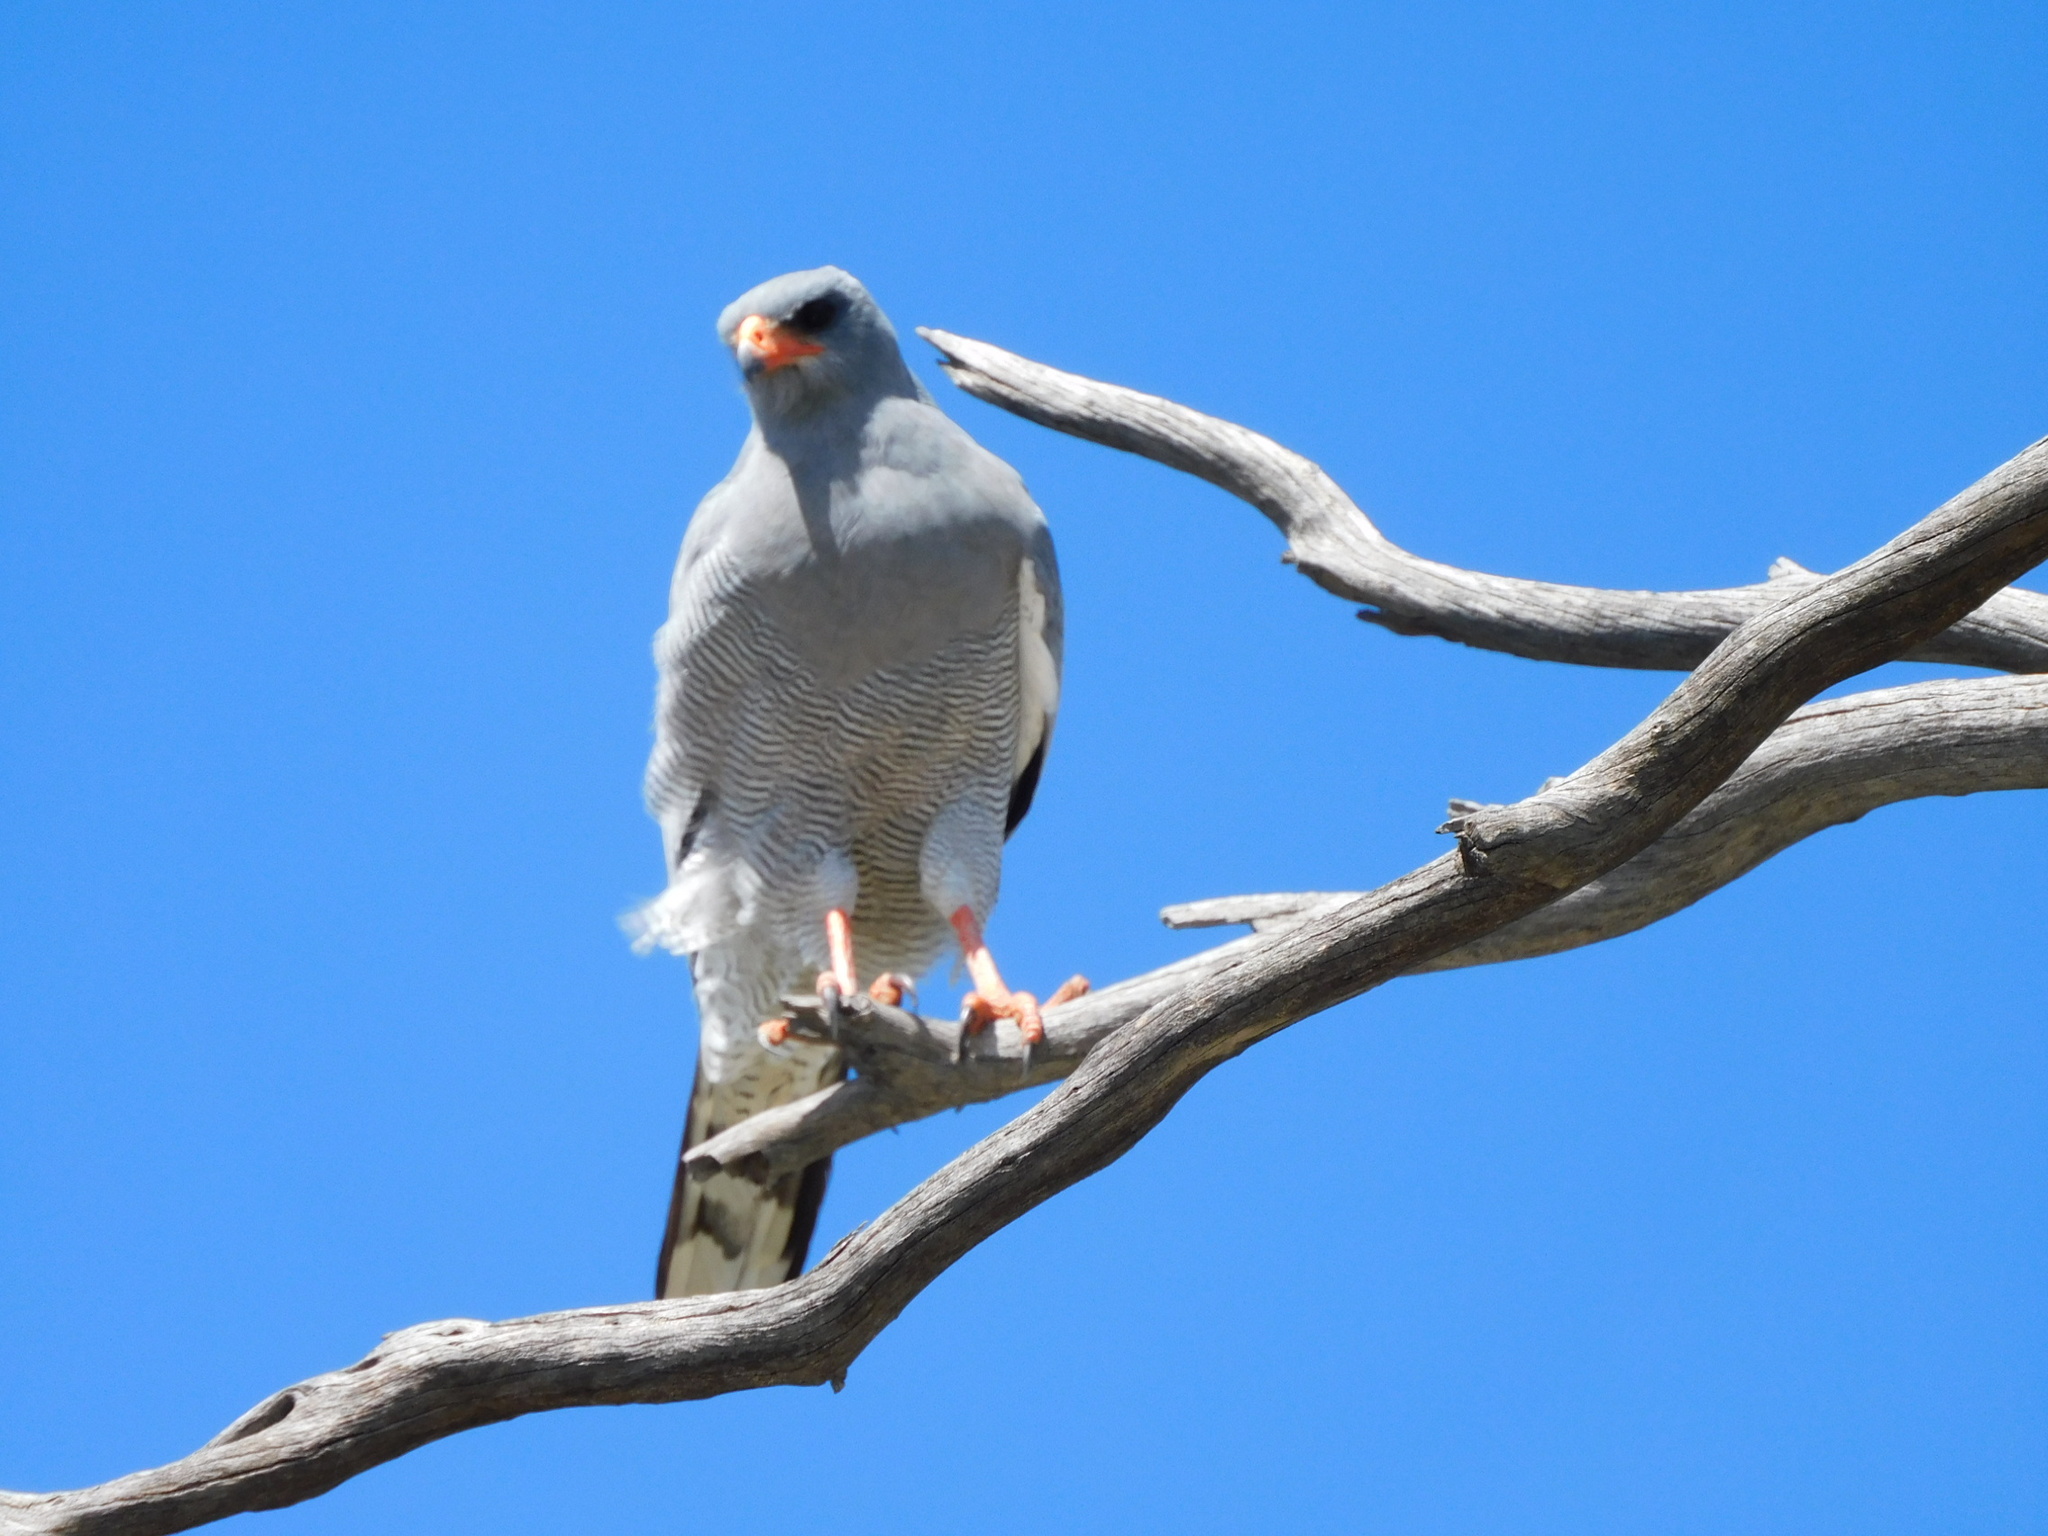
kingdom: Animalia
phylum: Chordata
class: Aves
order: Accipitriformes
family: Accipitridae
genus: Melierax
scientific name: Melierax canorus
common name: Pale chanting-goshawk
